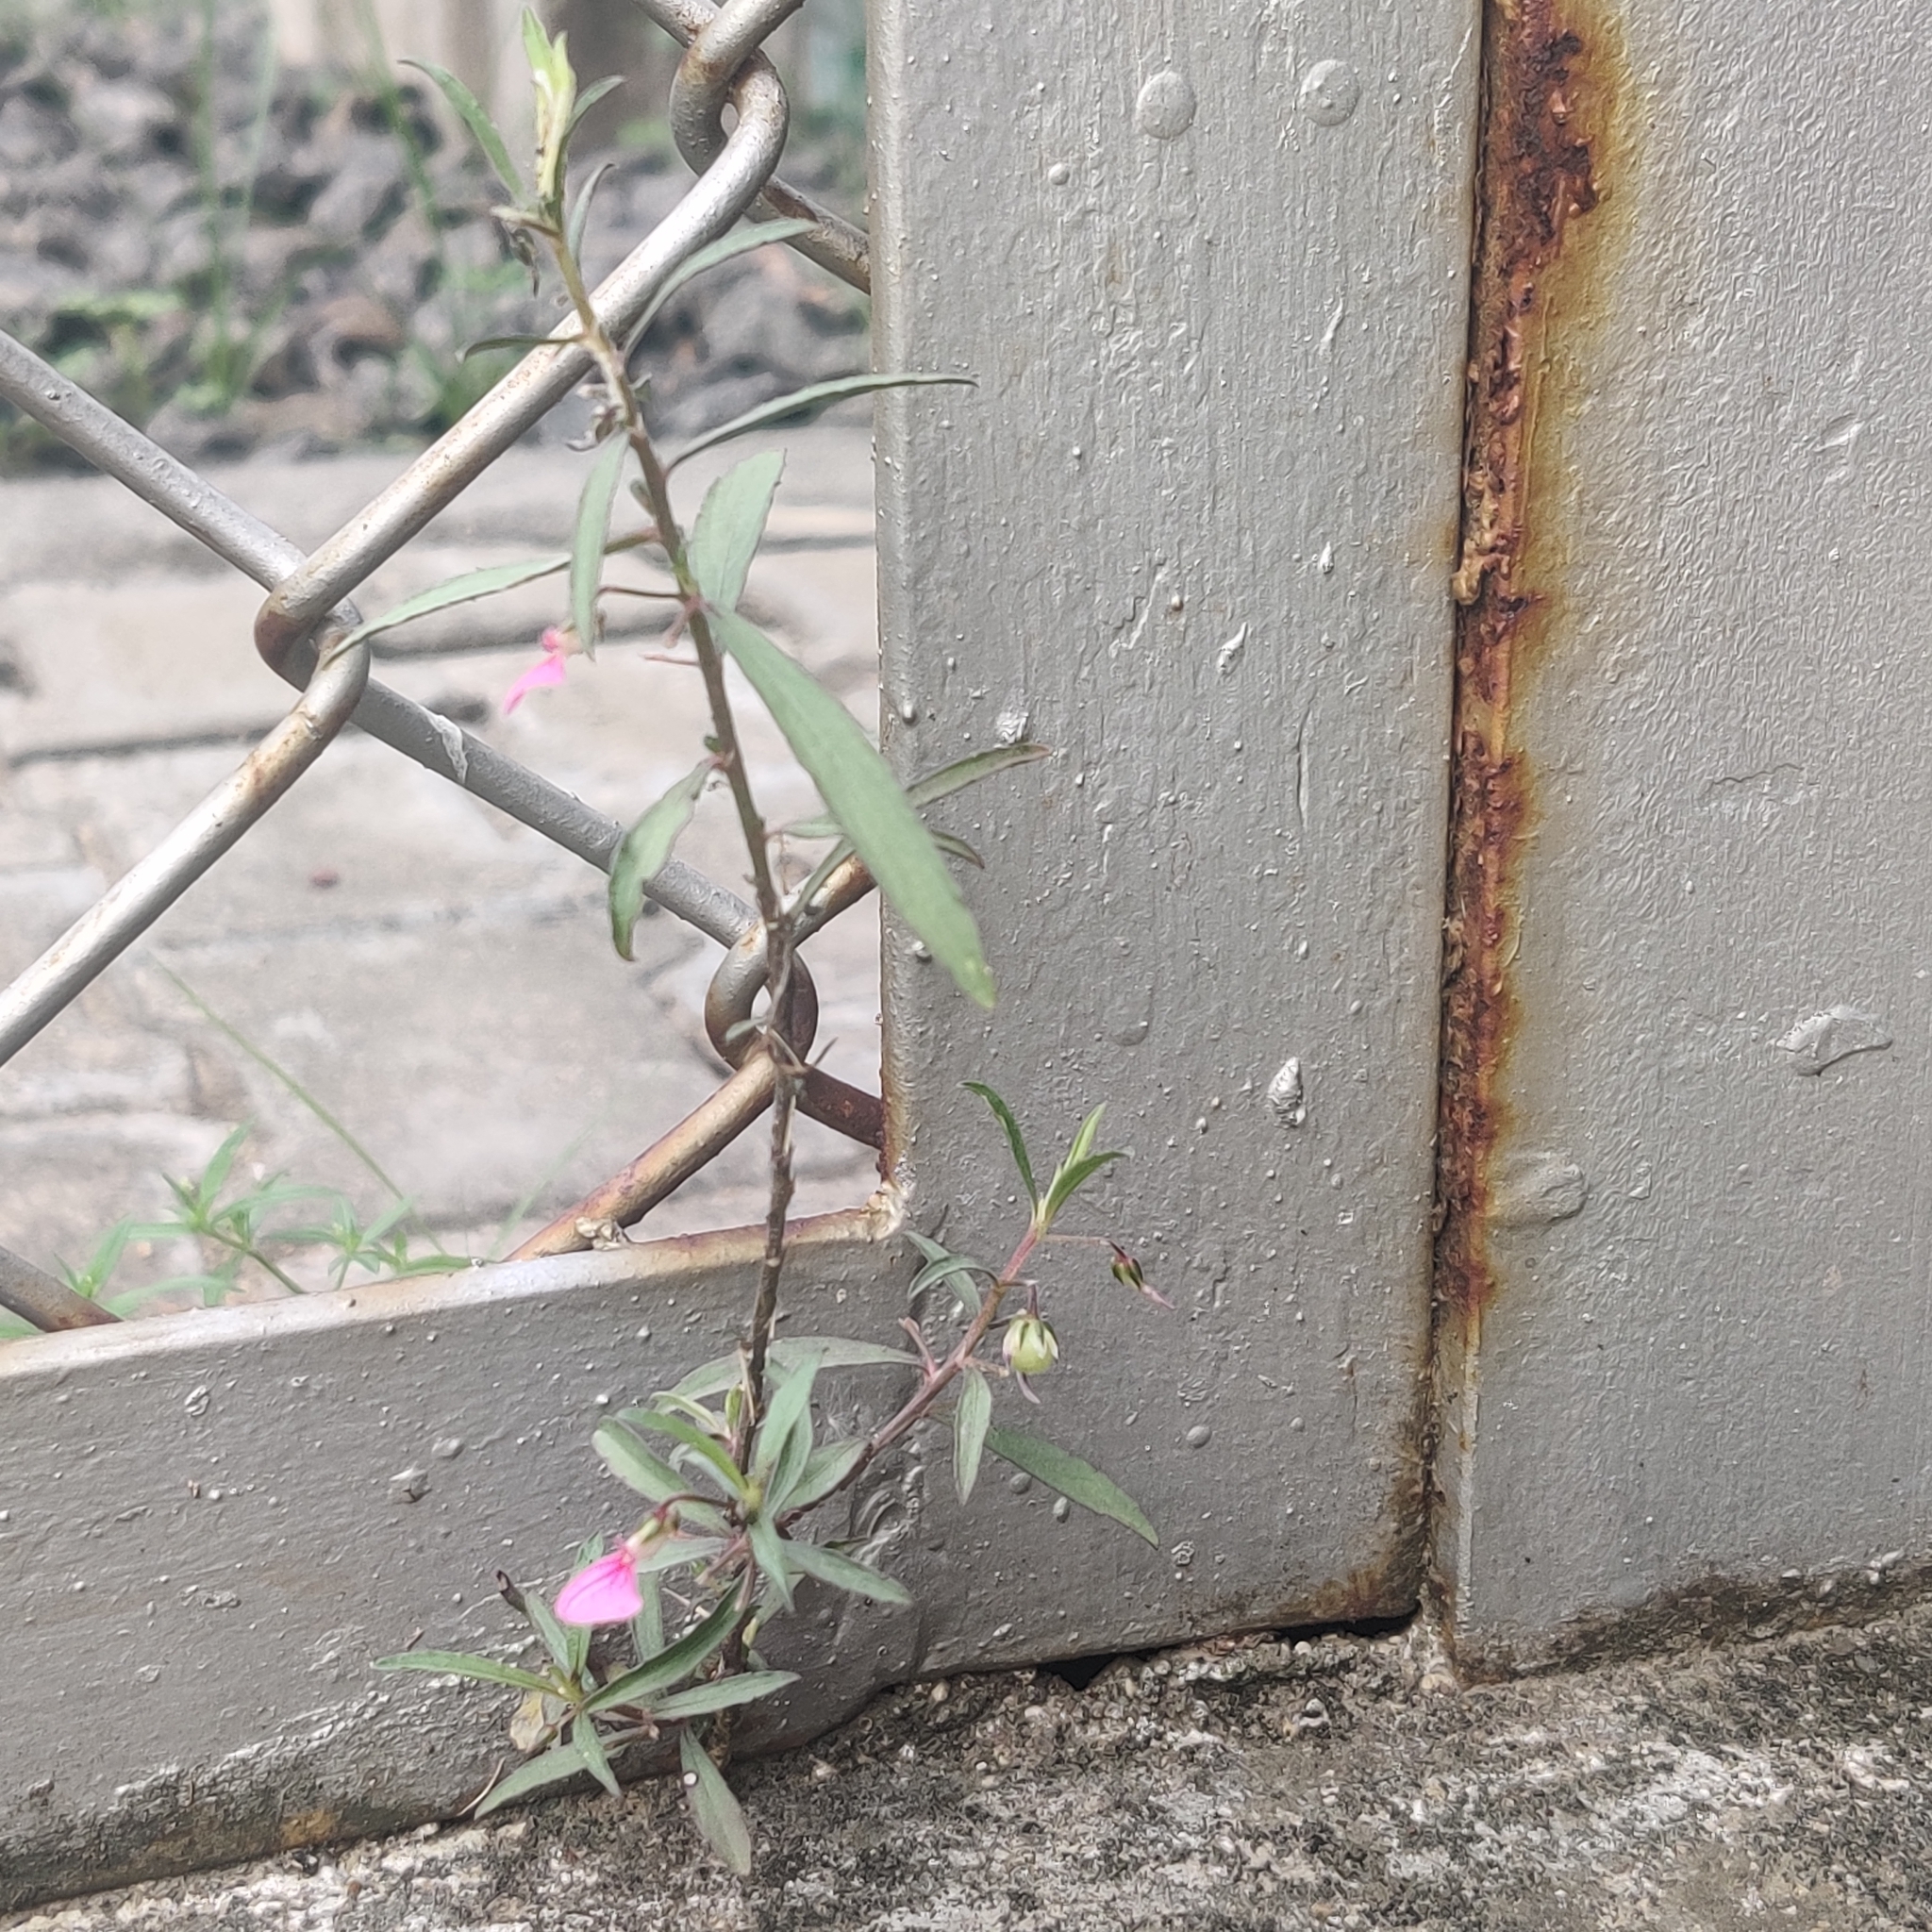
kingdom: Plantae
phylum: Tracheophyta
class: Magnoliopsida
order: Malpighiales
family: Violaceae
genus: Pigea
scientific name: Pigea enneasperma
